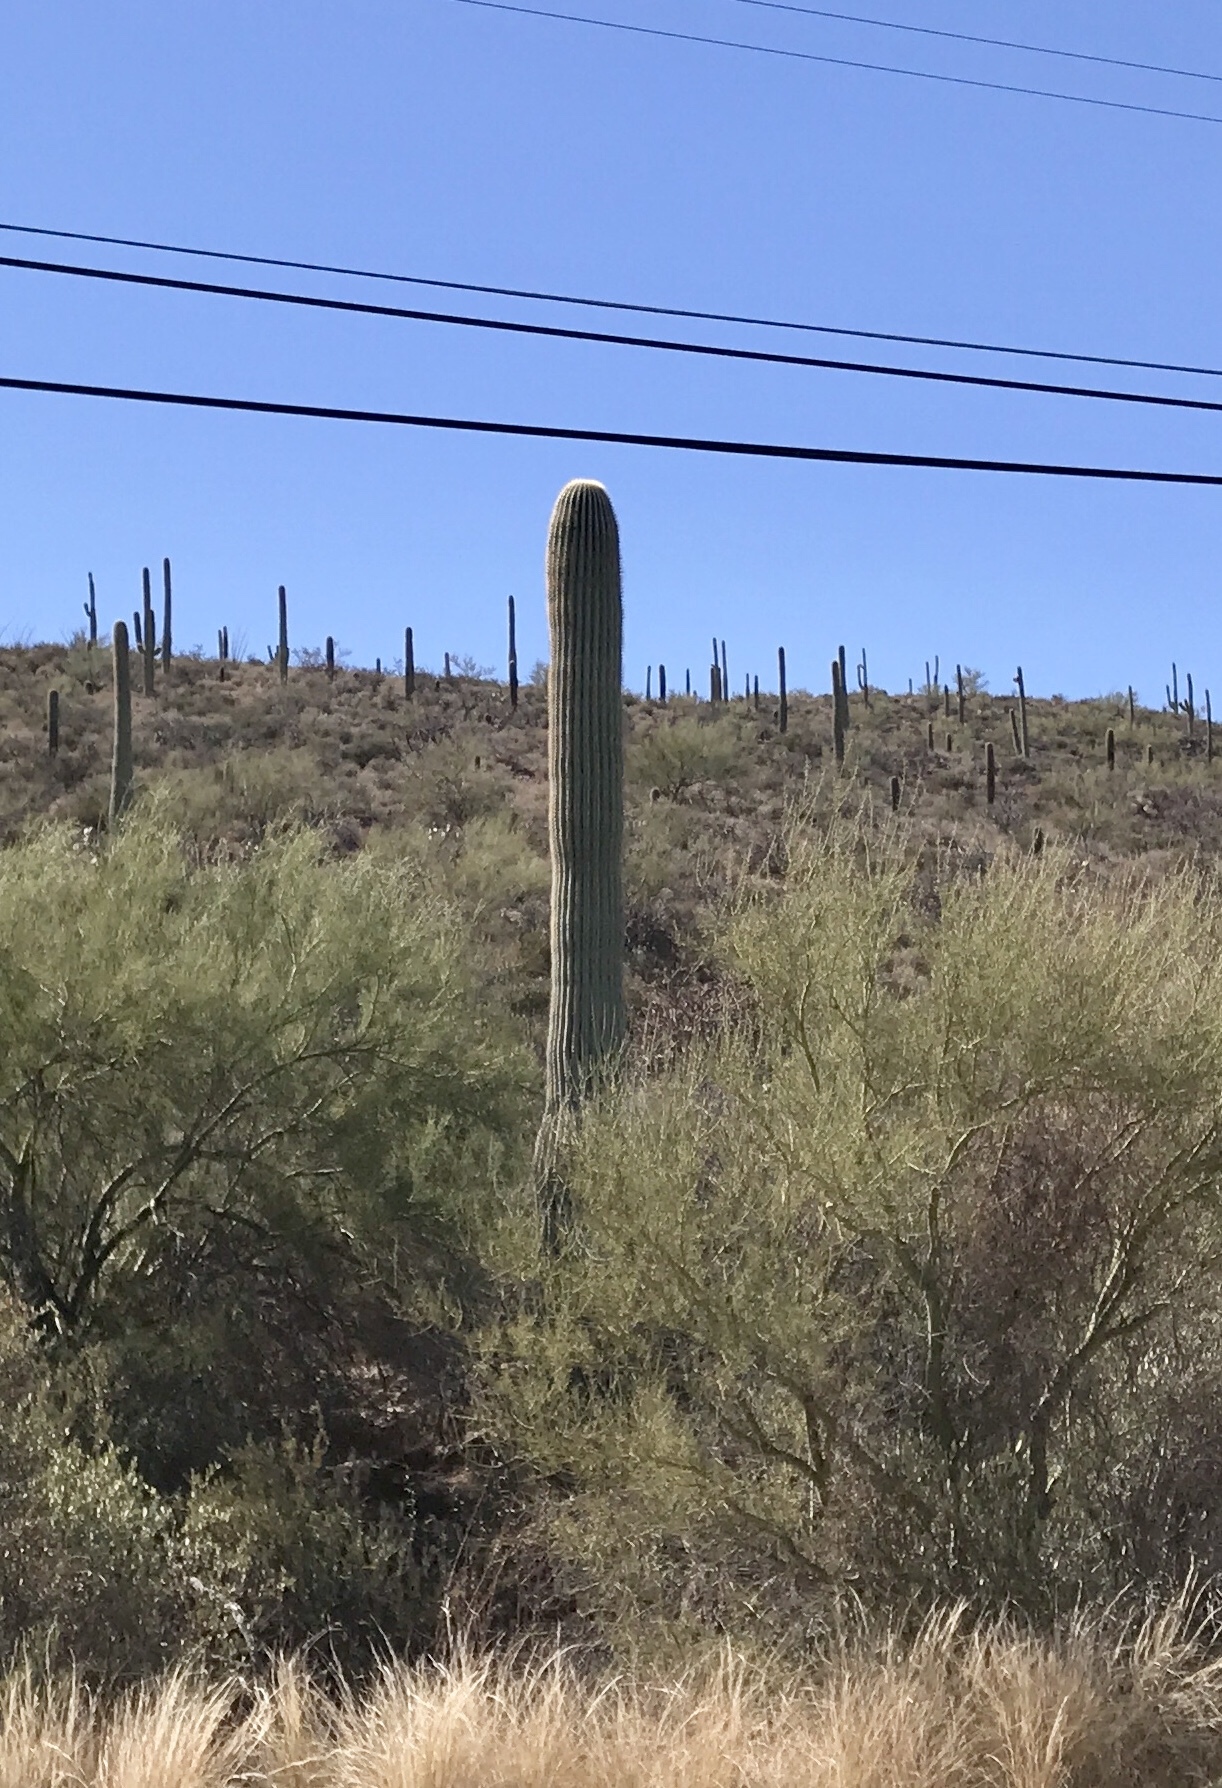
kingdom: Plantae
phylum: Tracheophyta
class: Magnoliopsida
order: Caryophyllales
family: Cactaceae
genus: Carnegiea
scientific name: Carnegiea gigantea
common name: Saguaro
